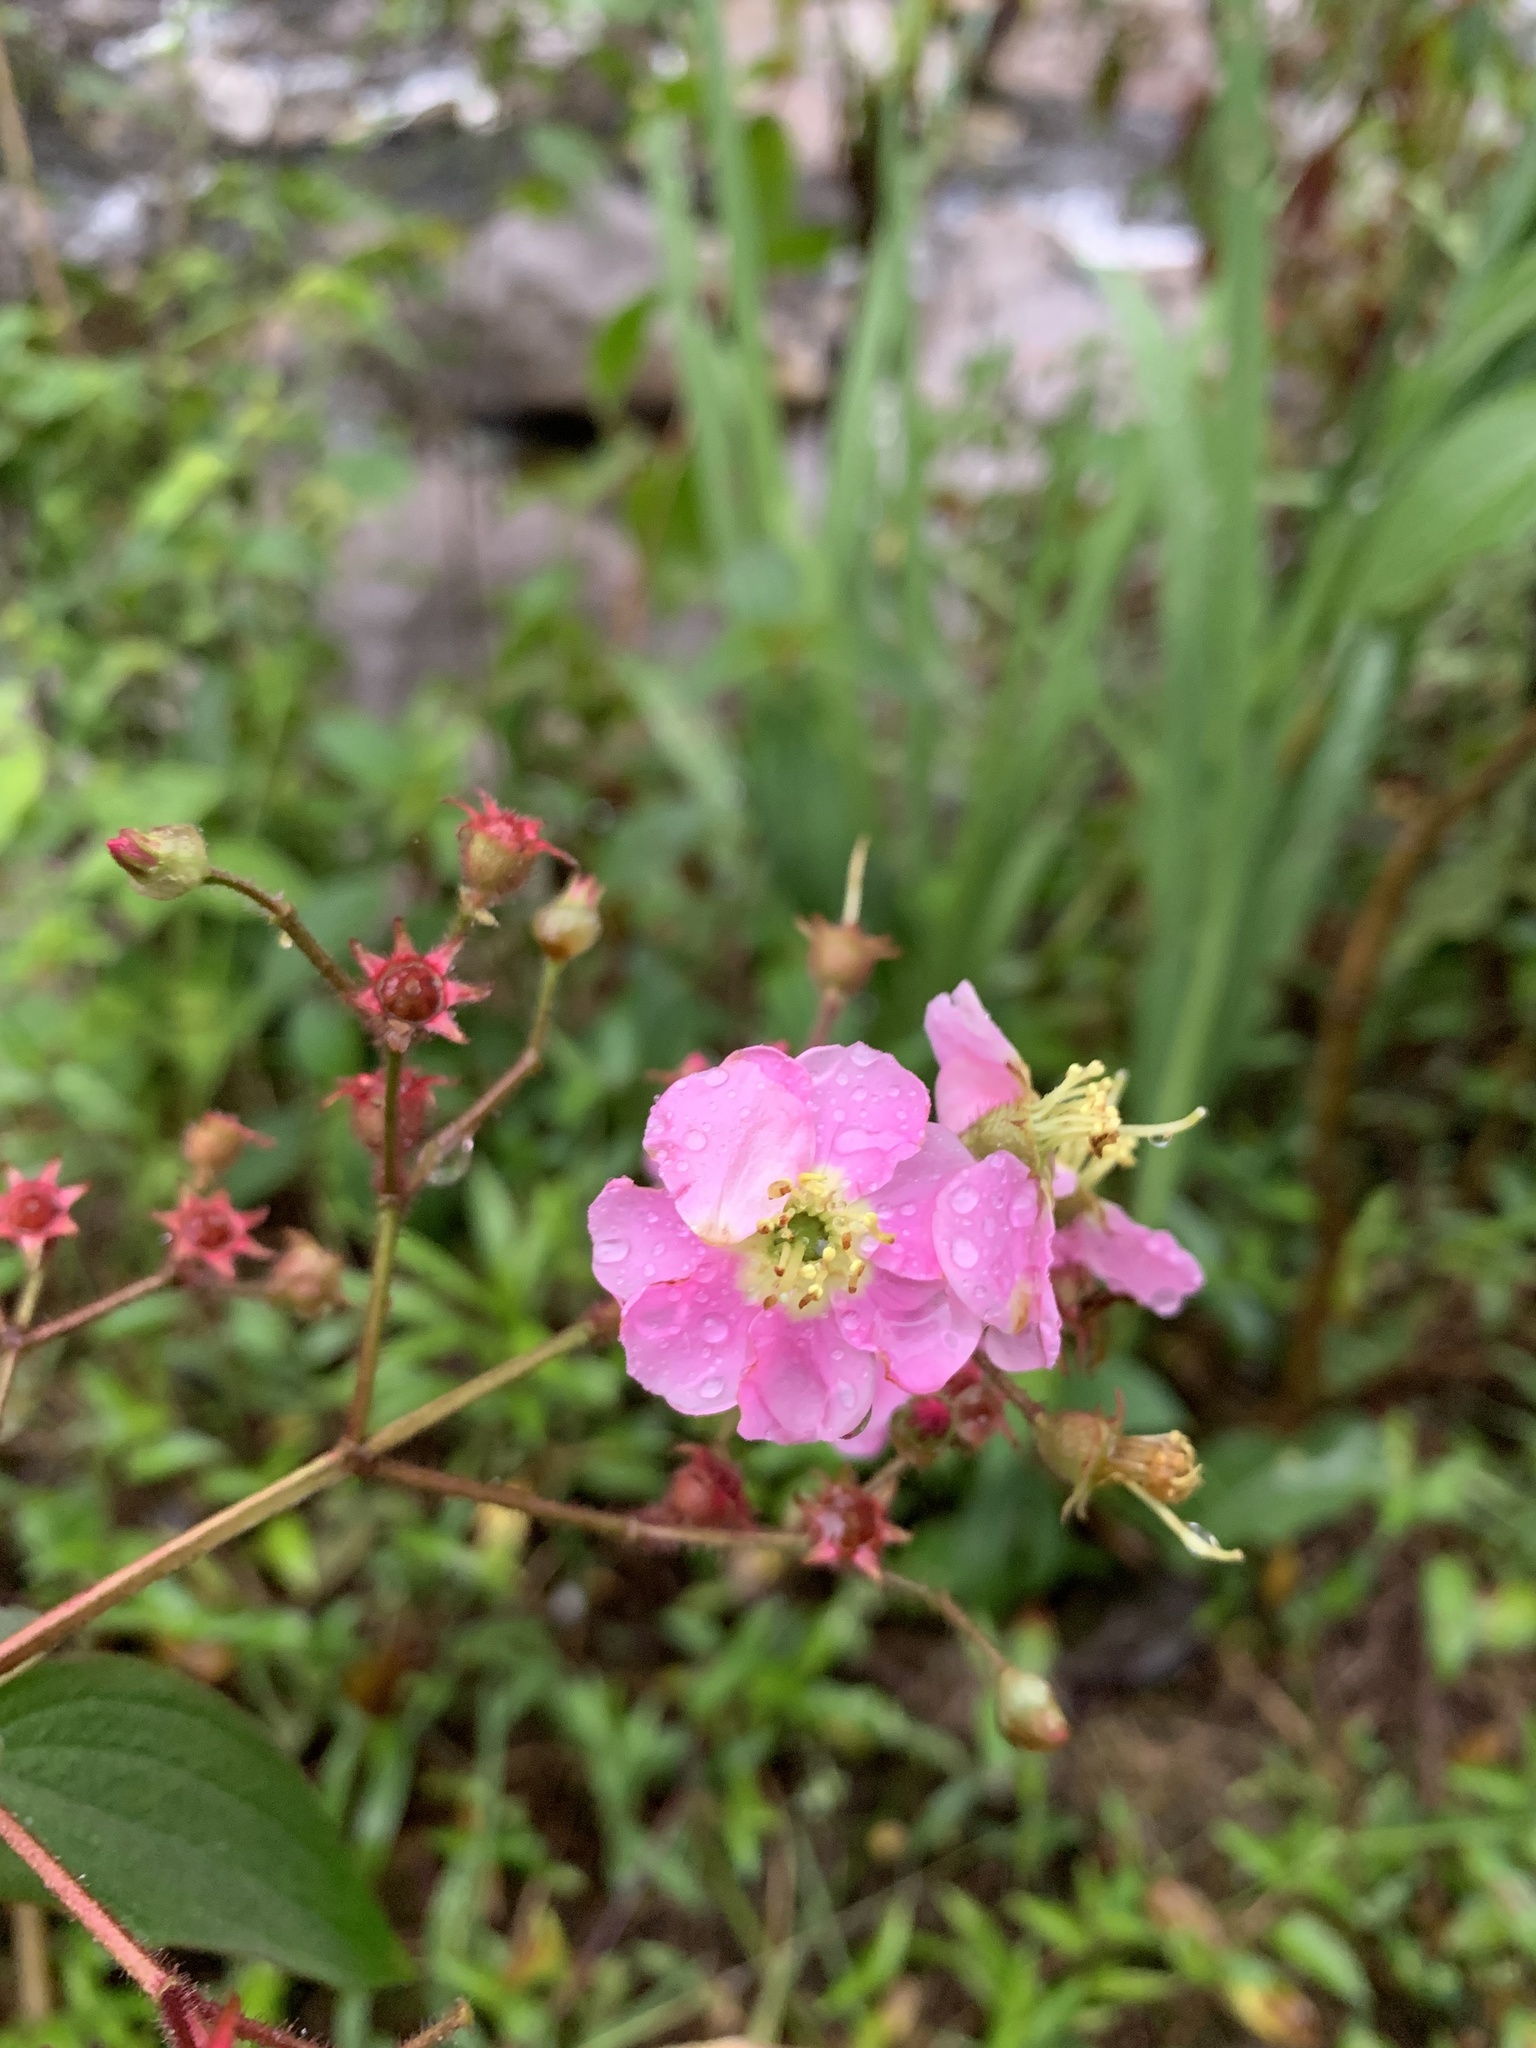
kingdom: Plantae
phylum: Tracheophyta
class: Magnoliopsida
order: Myrtales
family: Melastomataceae
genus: Chaetogastra
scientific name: Chaetogastra incarum
